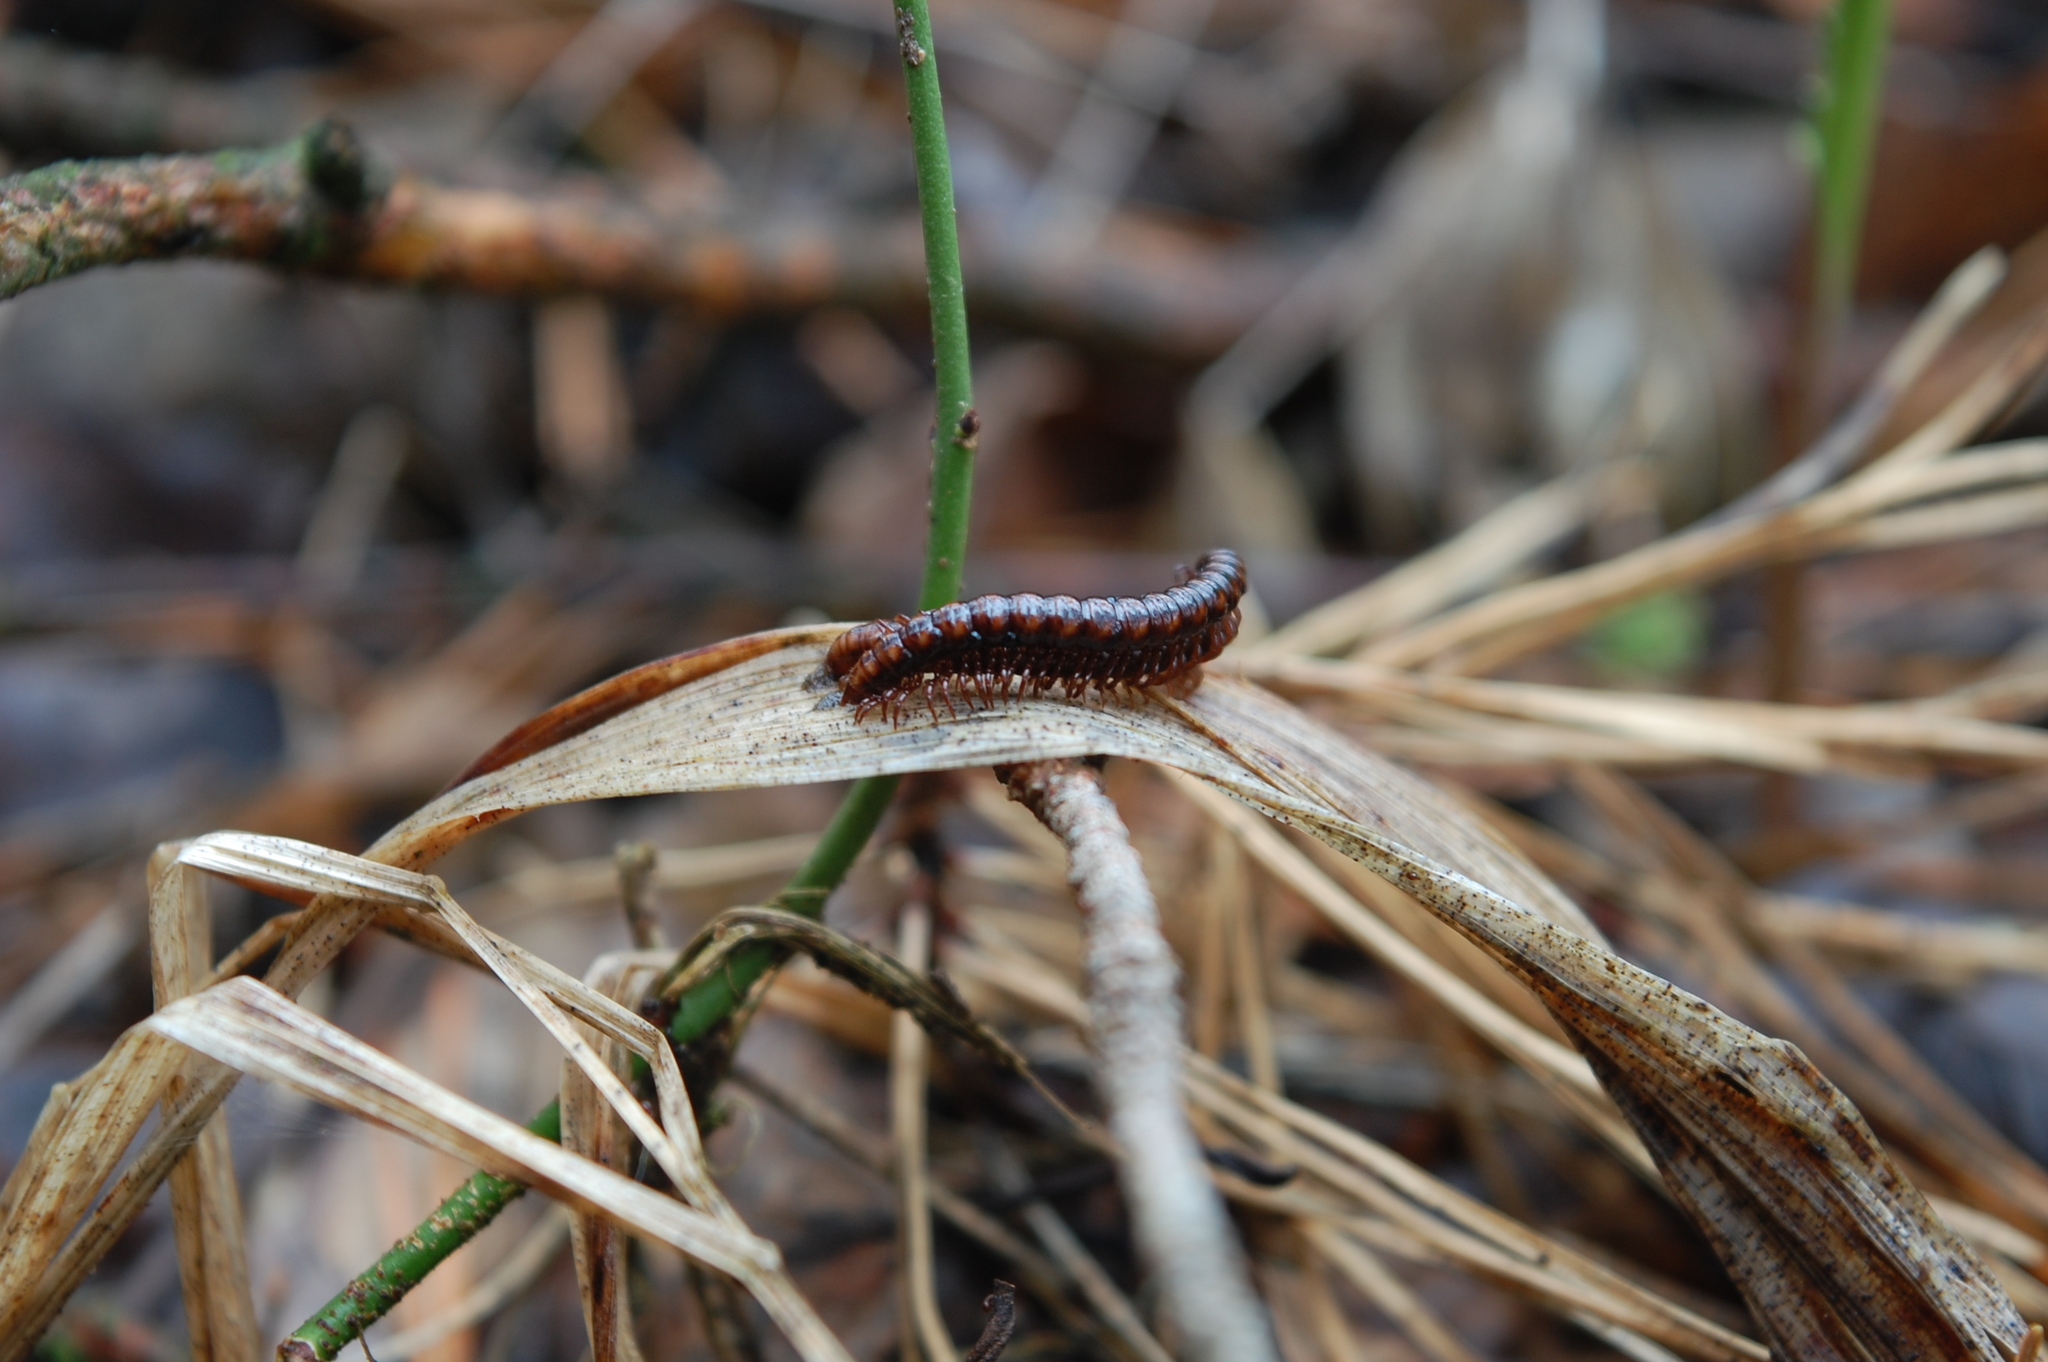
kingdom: Animalia
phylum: Arthropoda
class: Diplopoda
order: Polydesmida
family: Paradoxosomatidae
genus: Strongylosoma
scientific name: Strongylosoma stigmatosus
